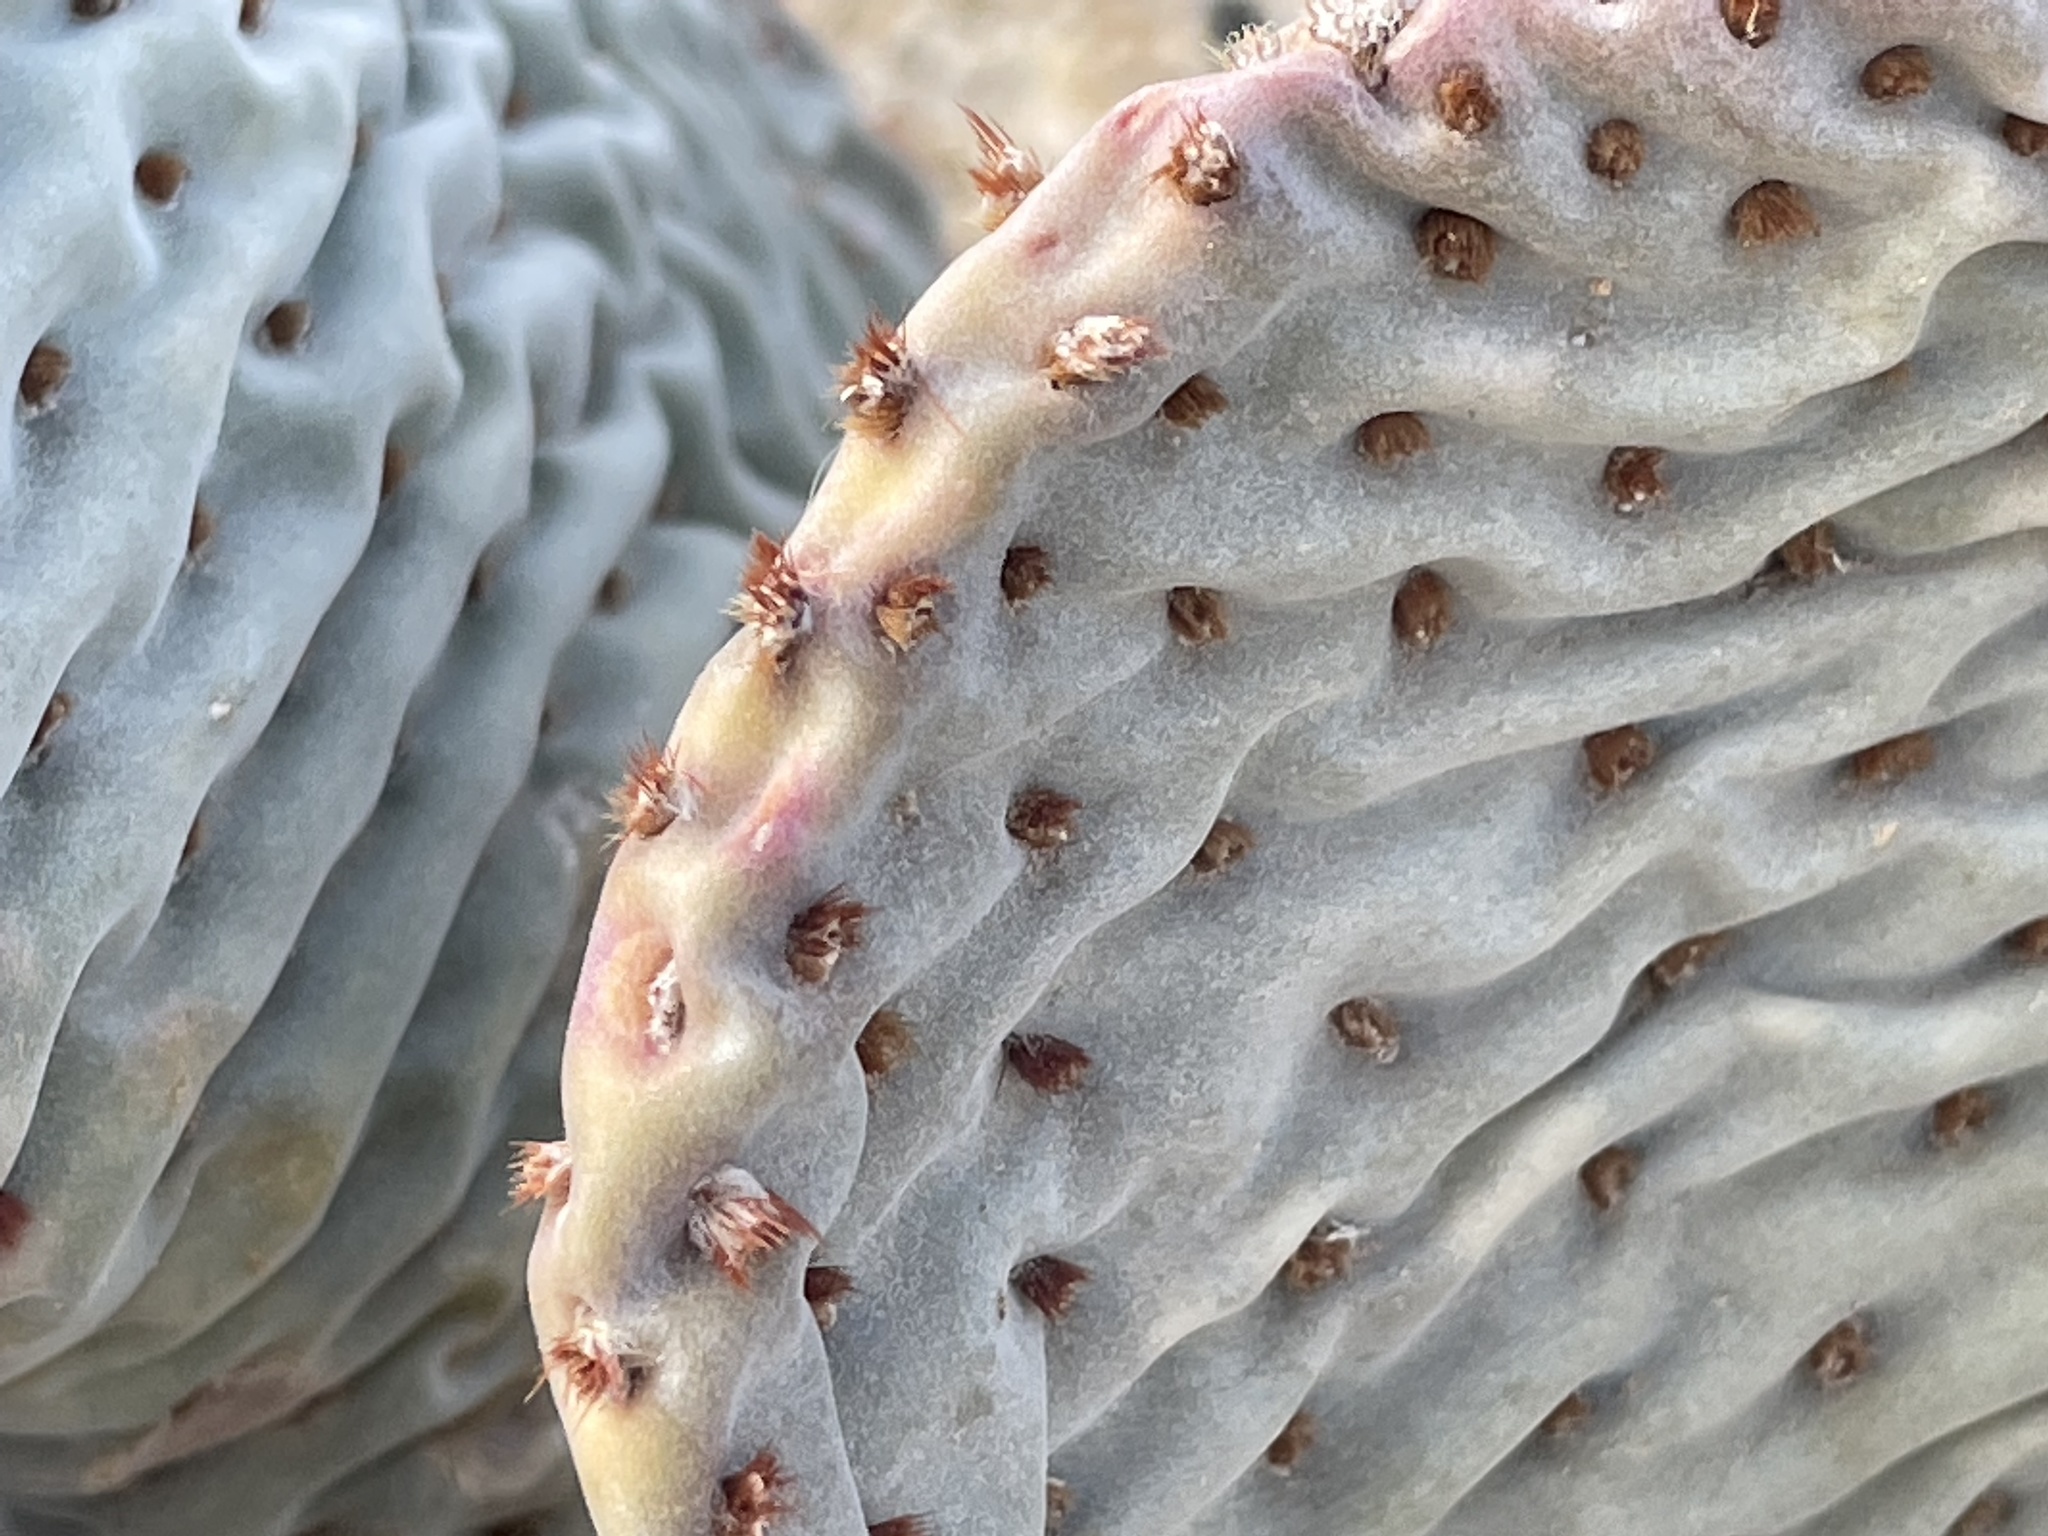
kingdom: Plantae
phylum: Tracheophyta
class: Magnoliopsida
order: Caryophyllales
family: Cactaceae
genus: Opuntia
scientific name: Opuntia basilaris
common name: Beavertail prickly-pear
